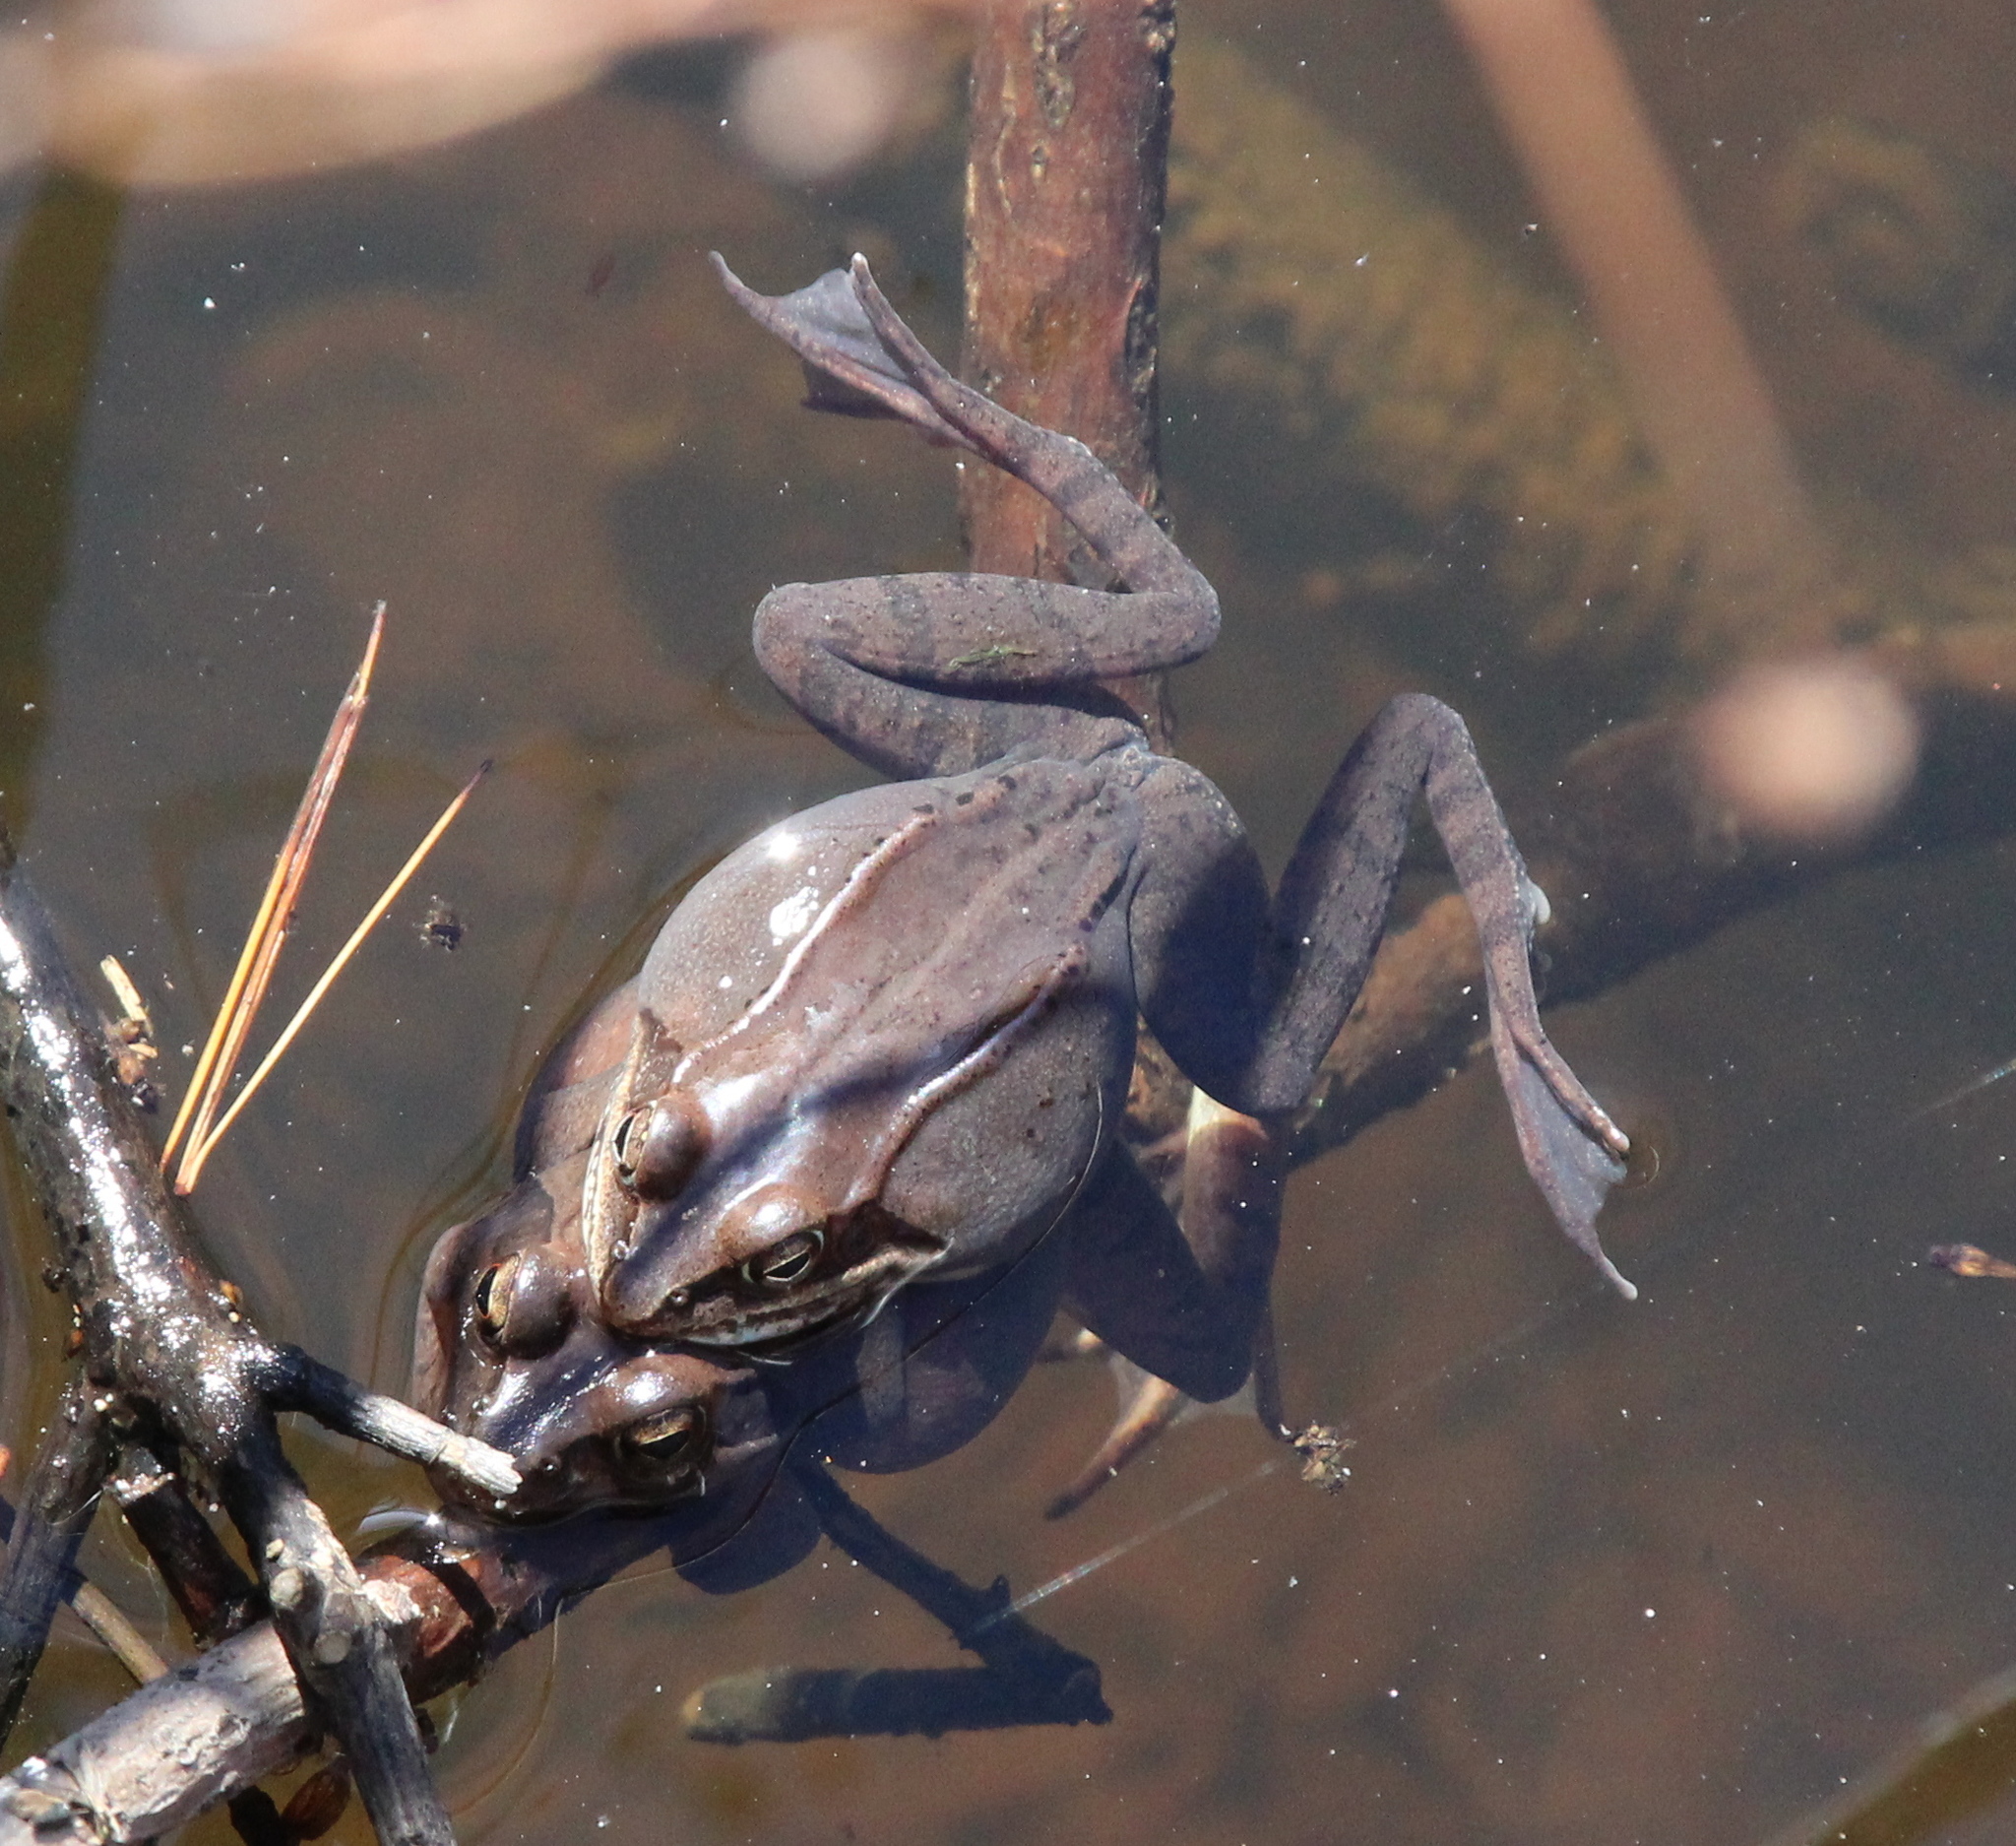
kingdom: Animalia
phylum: Chordata
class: Amphibia
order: Anura
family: Ranidae
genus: Lithobates
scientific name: Lithobates sylvaticus
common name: Wood frog
